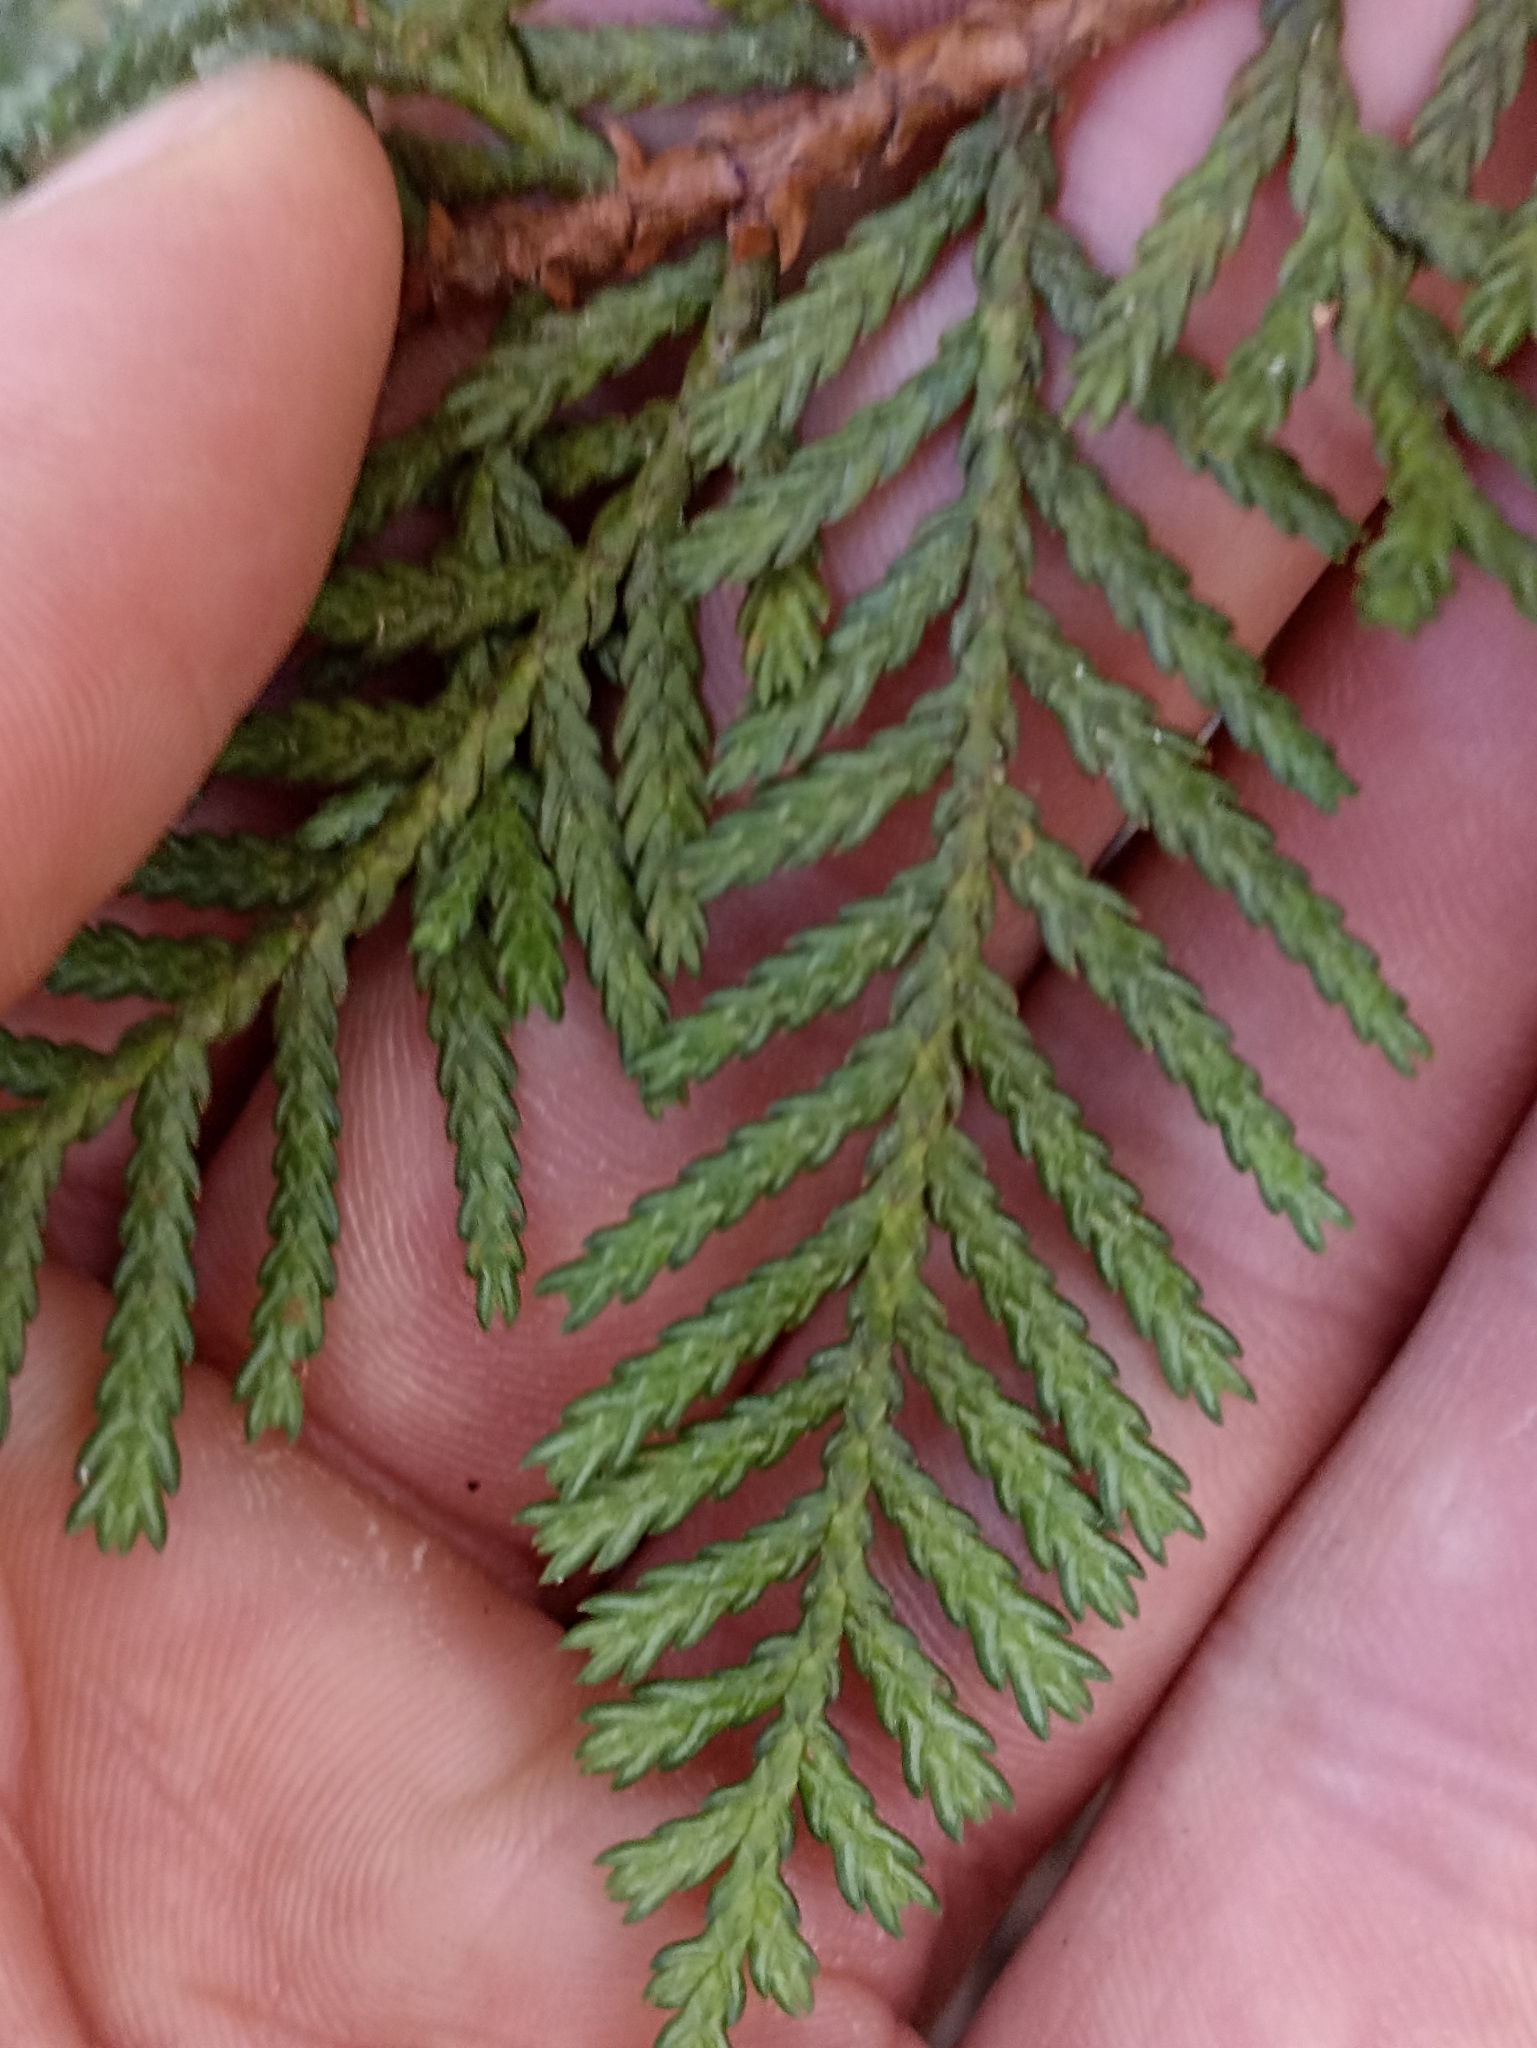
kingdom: Plantae
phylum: Tracheophyta
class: Pinopsida
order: Pinales
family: Cupressaceae
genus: Libocedrus
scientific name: Libocedrus bidwillii
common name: Cedar
